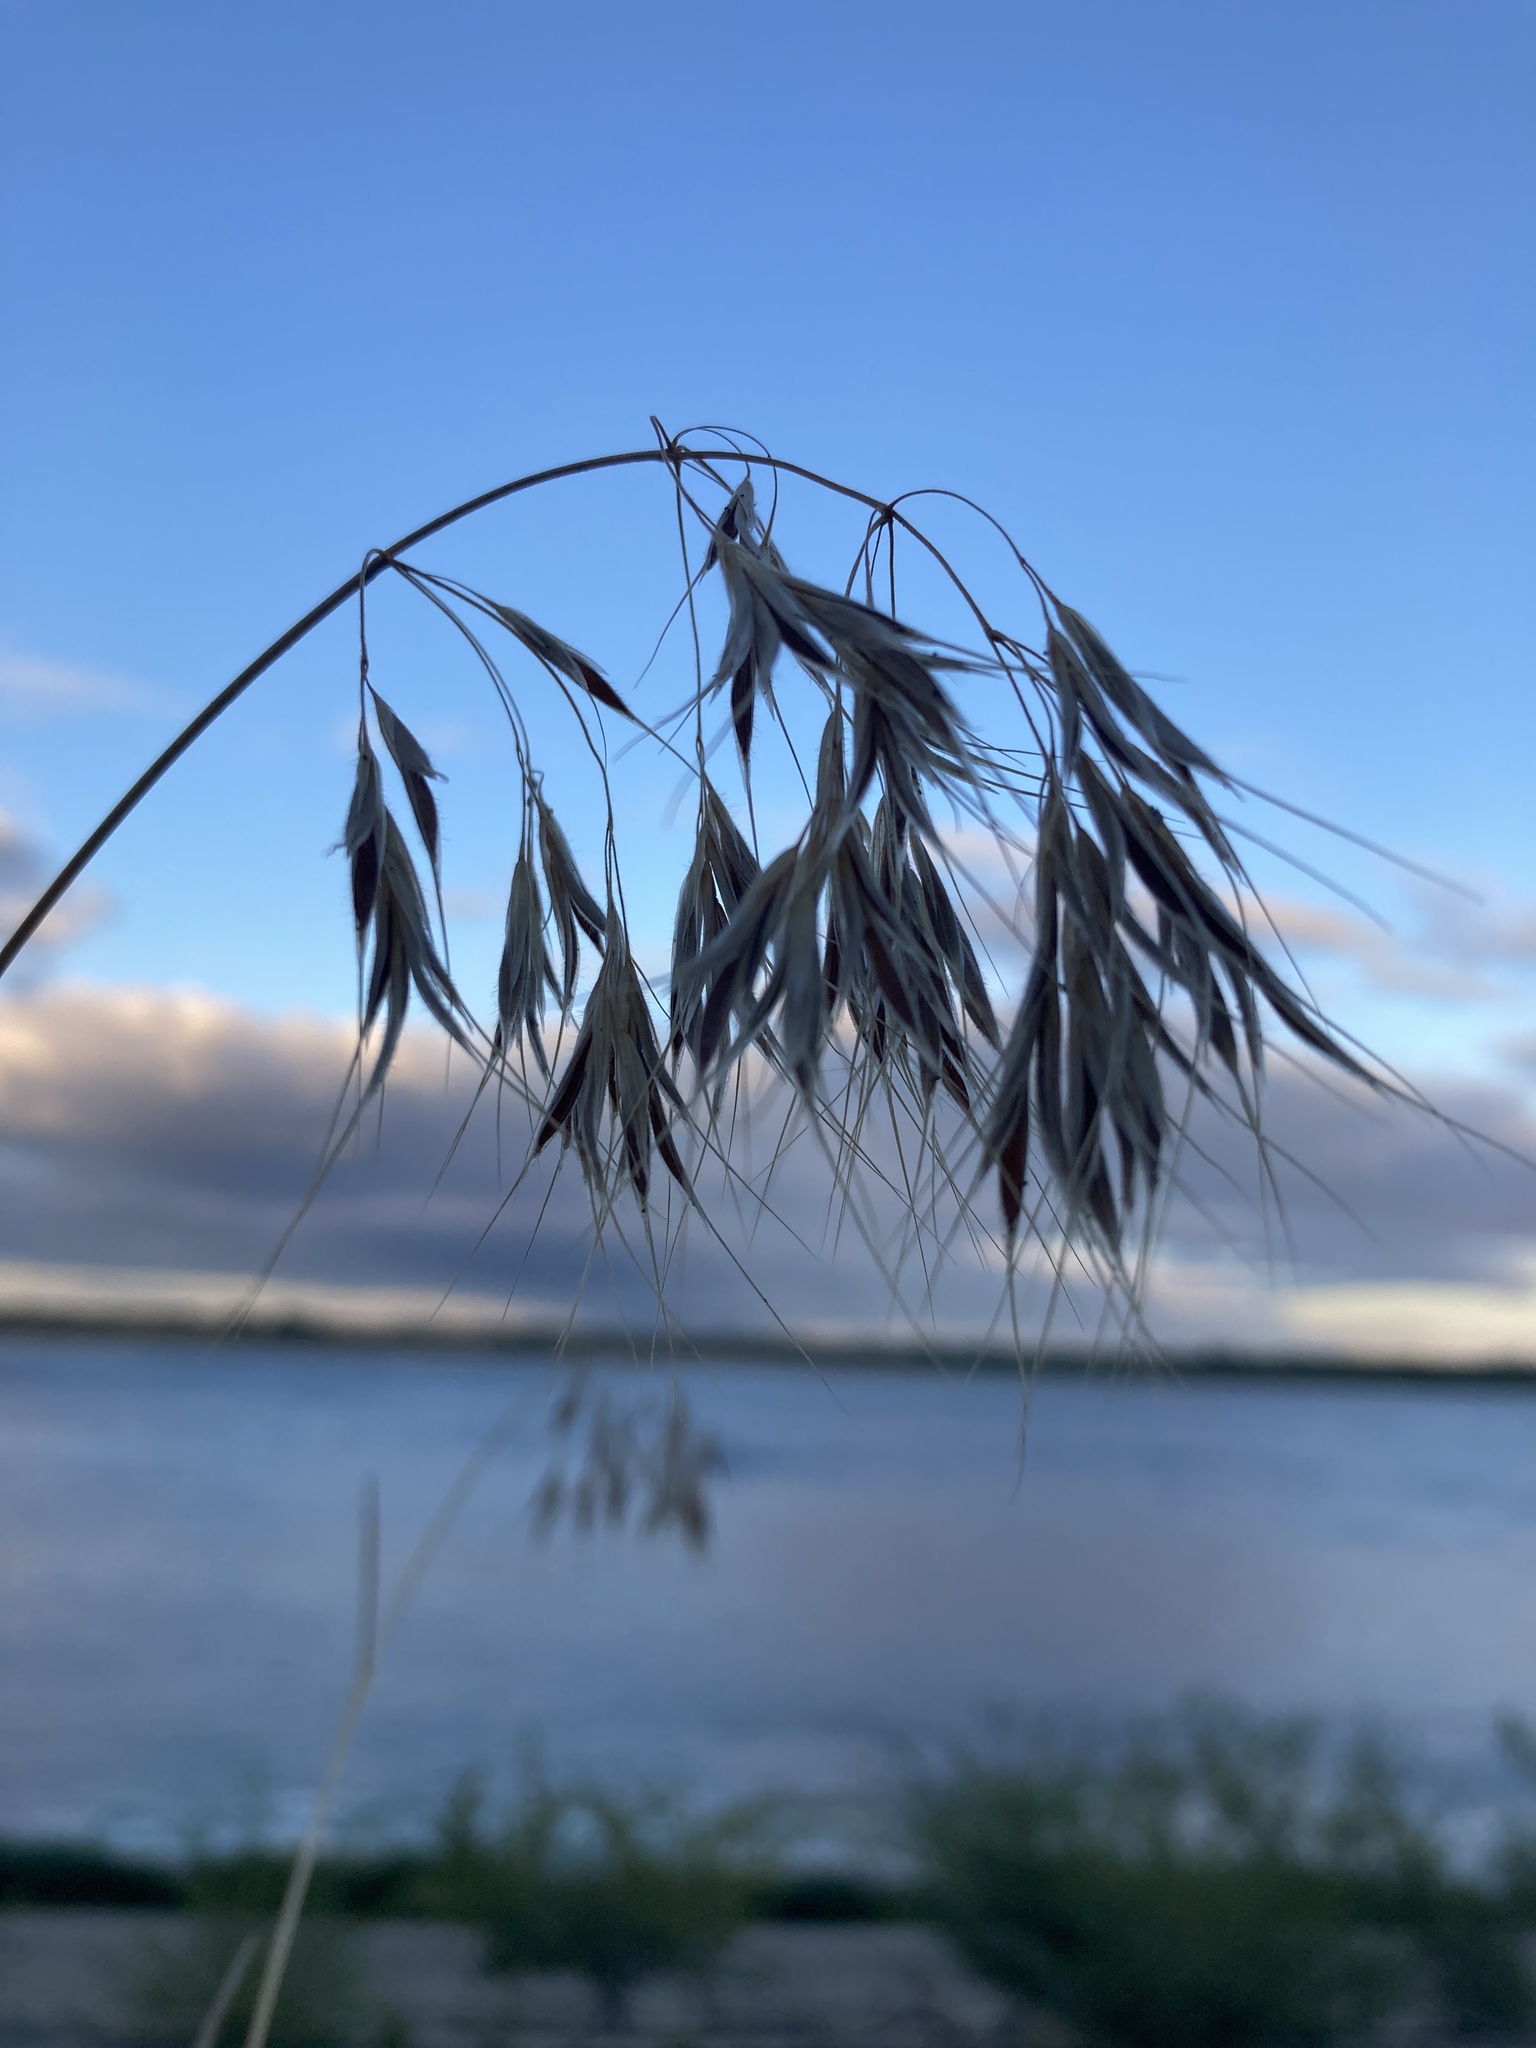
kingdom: Plantae
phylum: Tracheophyta
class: Liliopsida
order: Poales
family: Poaceae
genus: Bromus
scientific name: Bromus tectorum
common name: Cheatgrass
